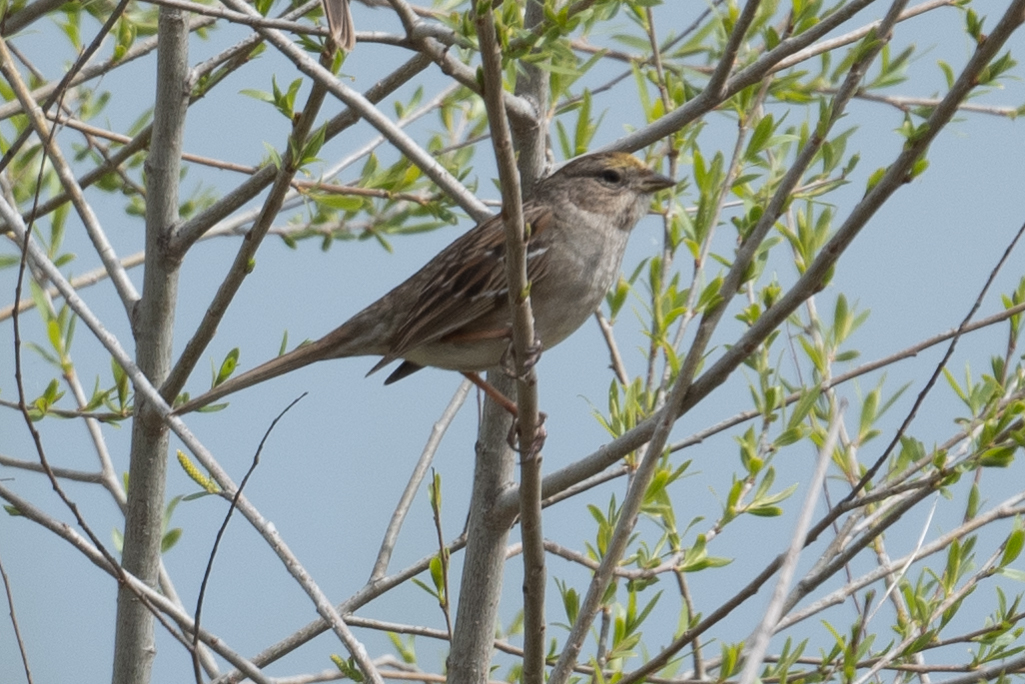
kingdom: Animalia
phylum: Chordata
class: Aves
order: Passeriformes
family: Passerellidae
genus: Zonotrichia
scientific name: Zonotrichia atricapilla
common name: Golden-crowned sparrow
